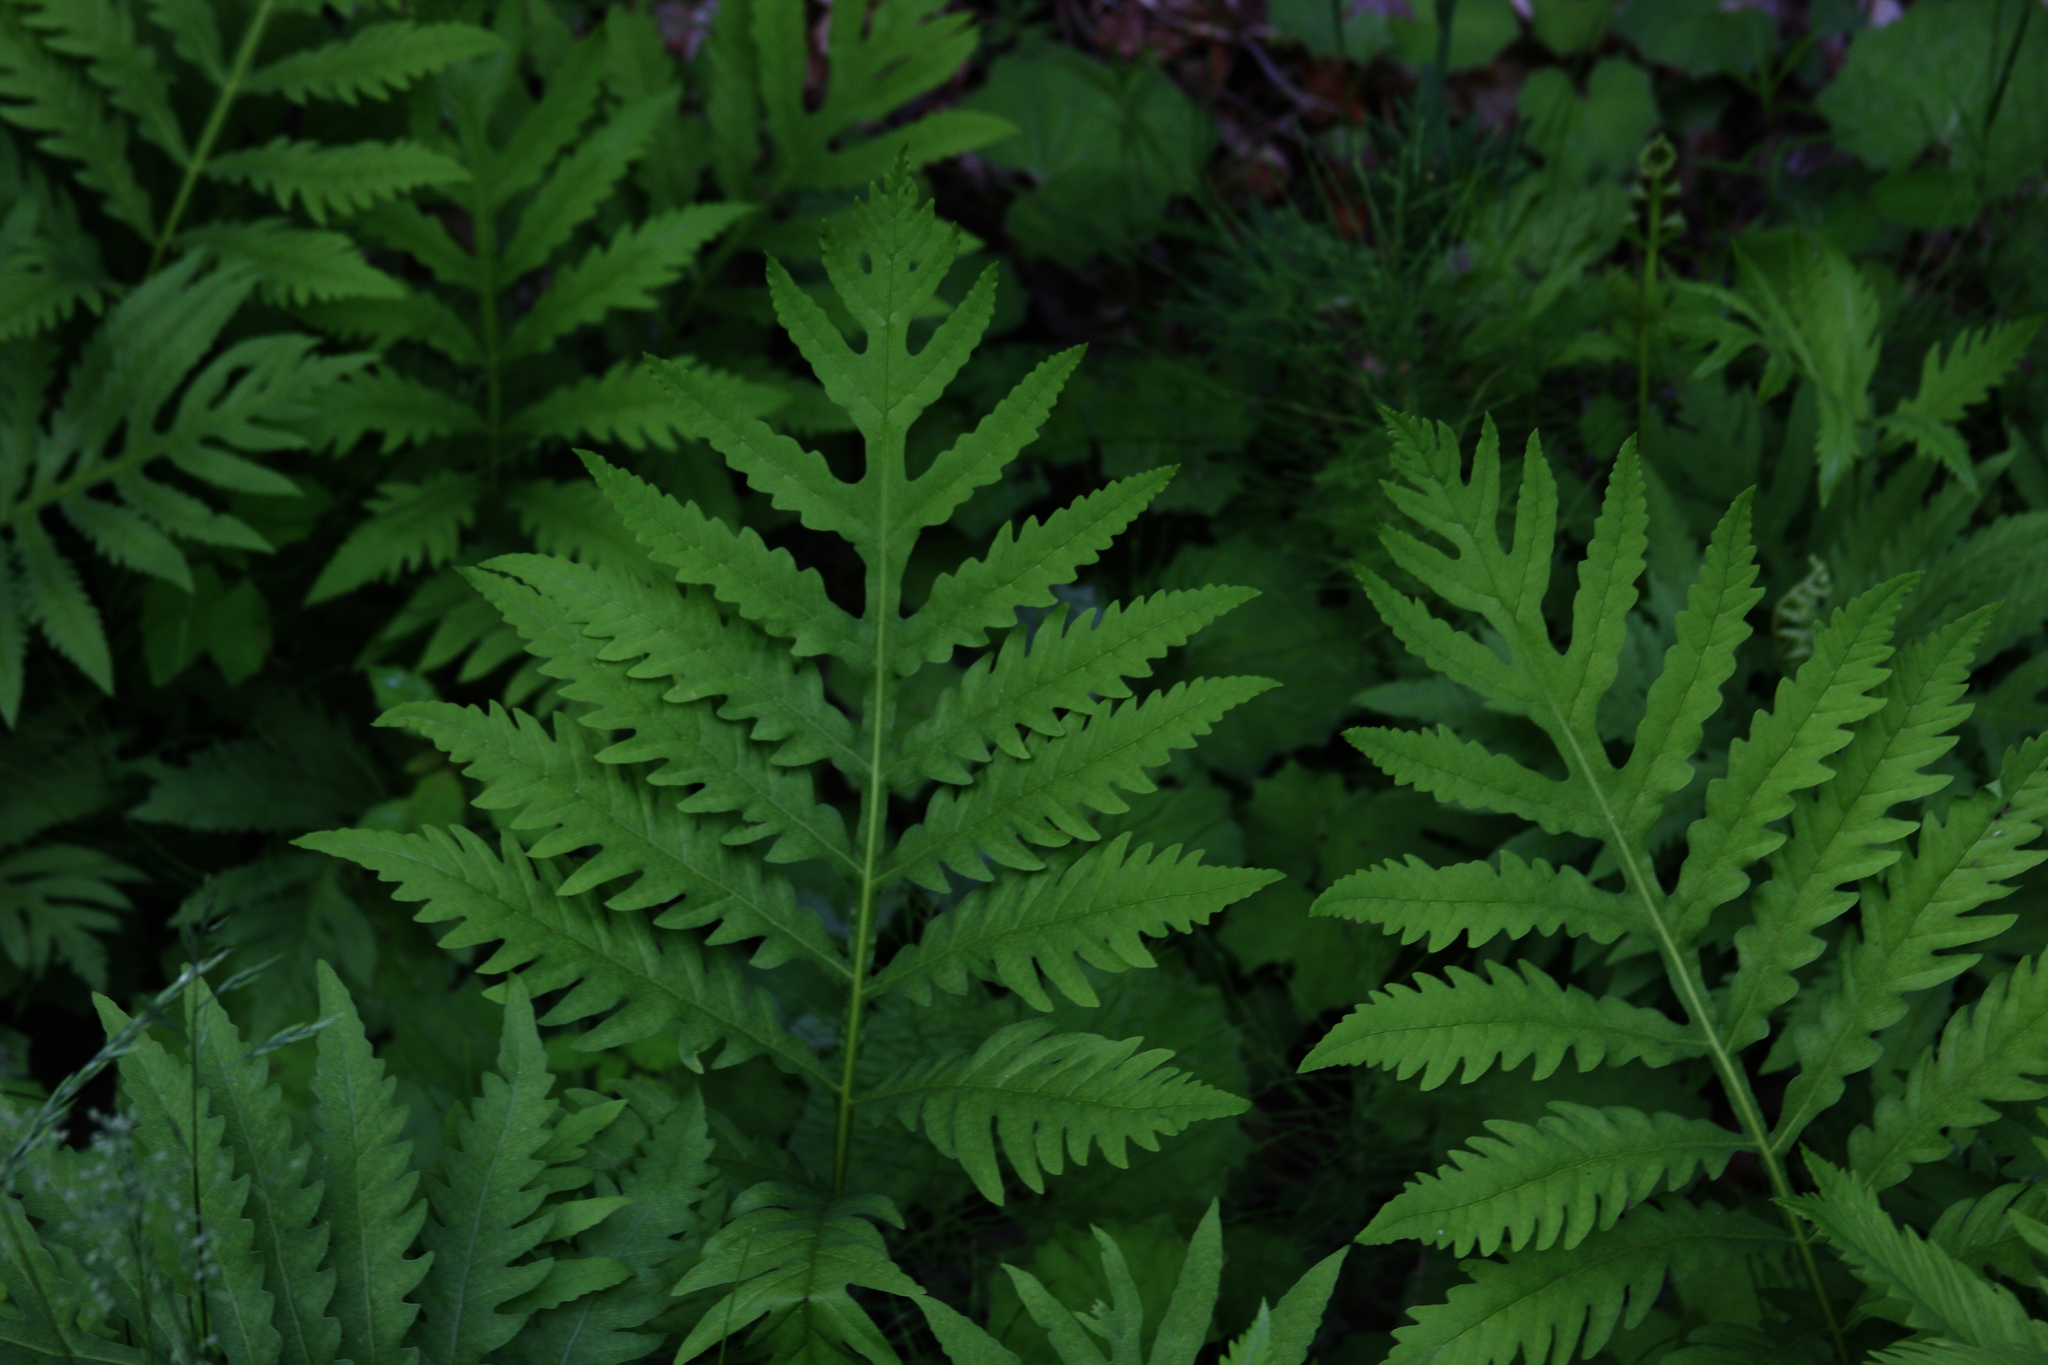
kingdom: Plantae
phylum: Tracheophyta
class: Polypodiopsida
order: Polypodiales
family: Onocleaceae
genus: Onoclea
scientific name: Onoclea sensibilis
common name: Sensitive fern
